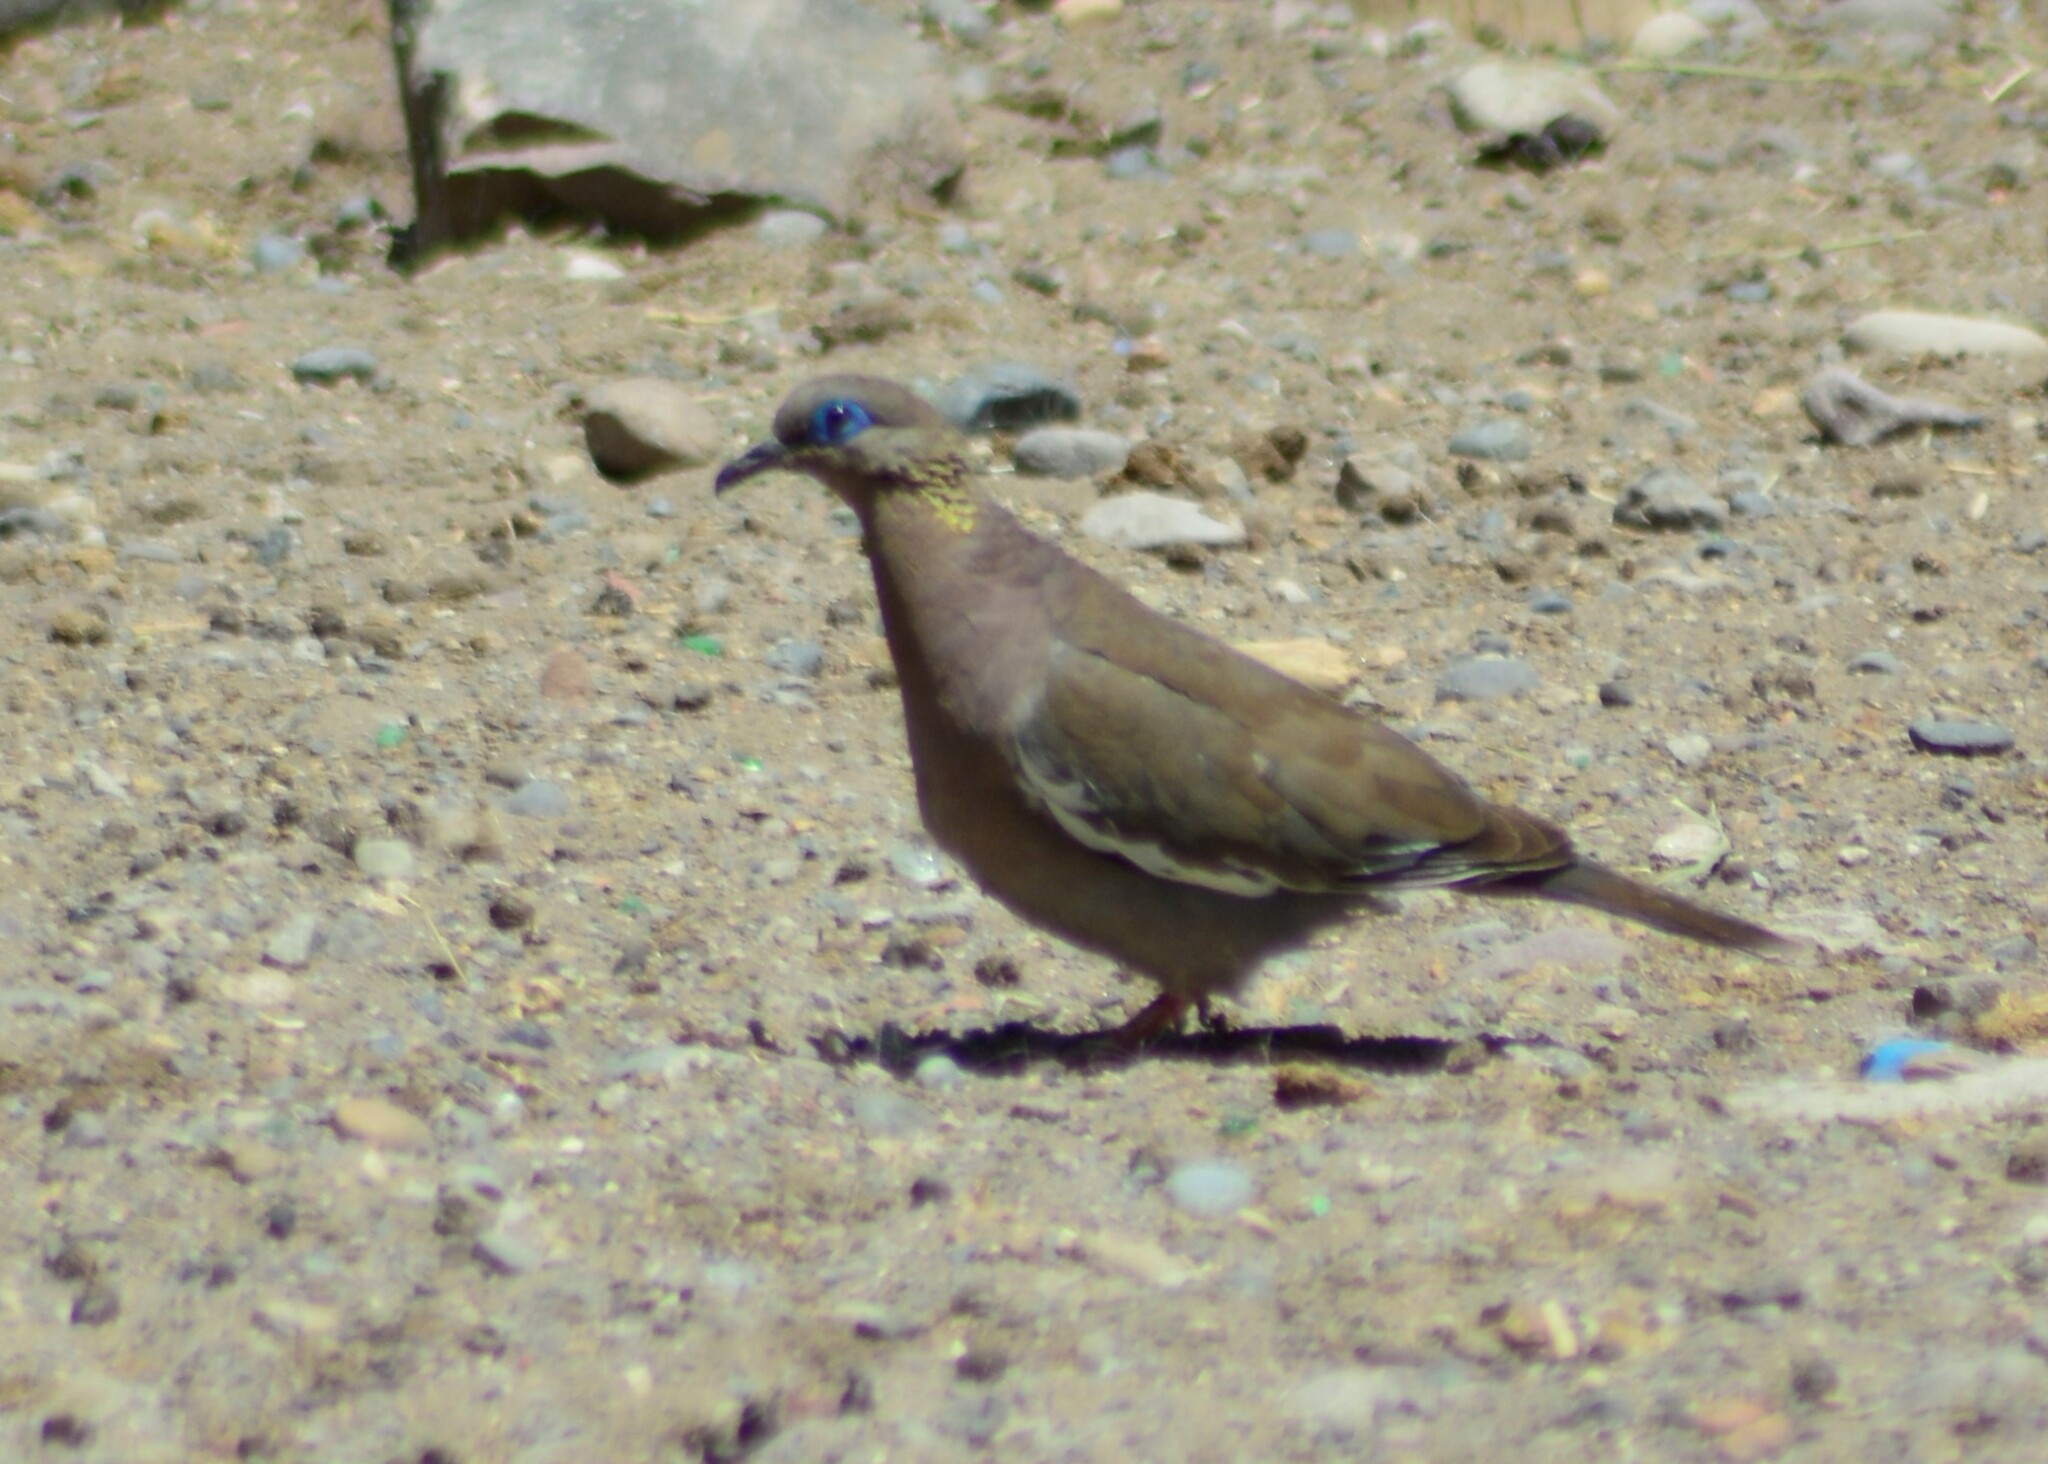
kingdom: Animalia
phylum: Chordata
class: Aves
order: Columbiformes
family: Columbidae
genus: Zenaida
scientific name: Zenaida meloda
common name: West peruvian dove
